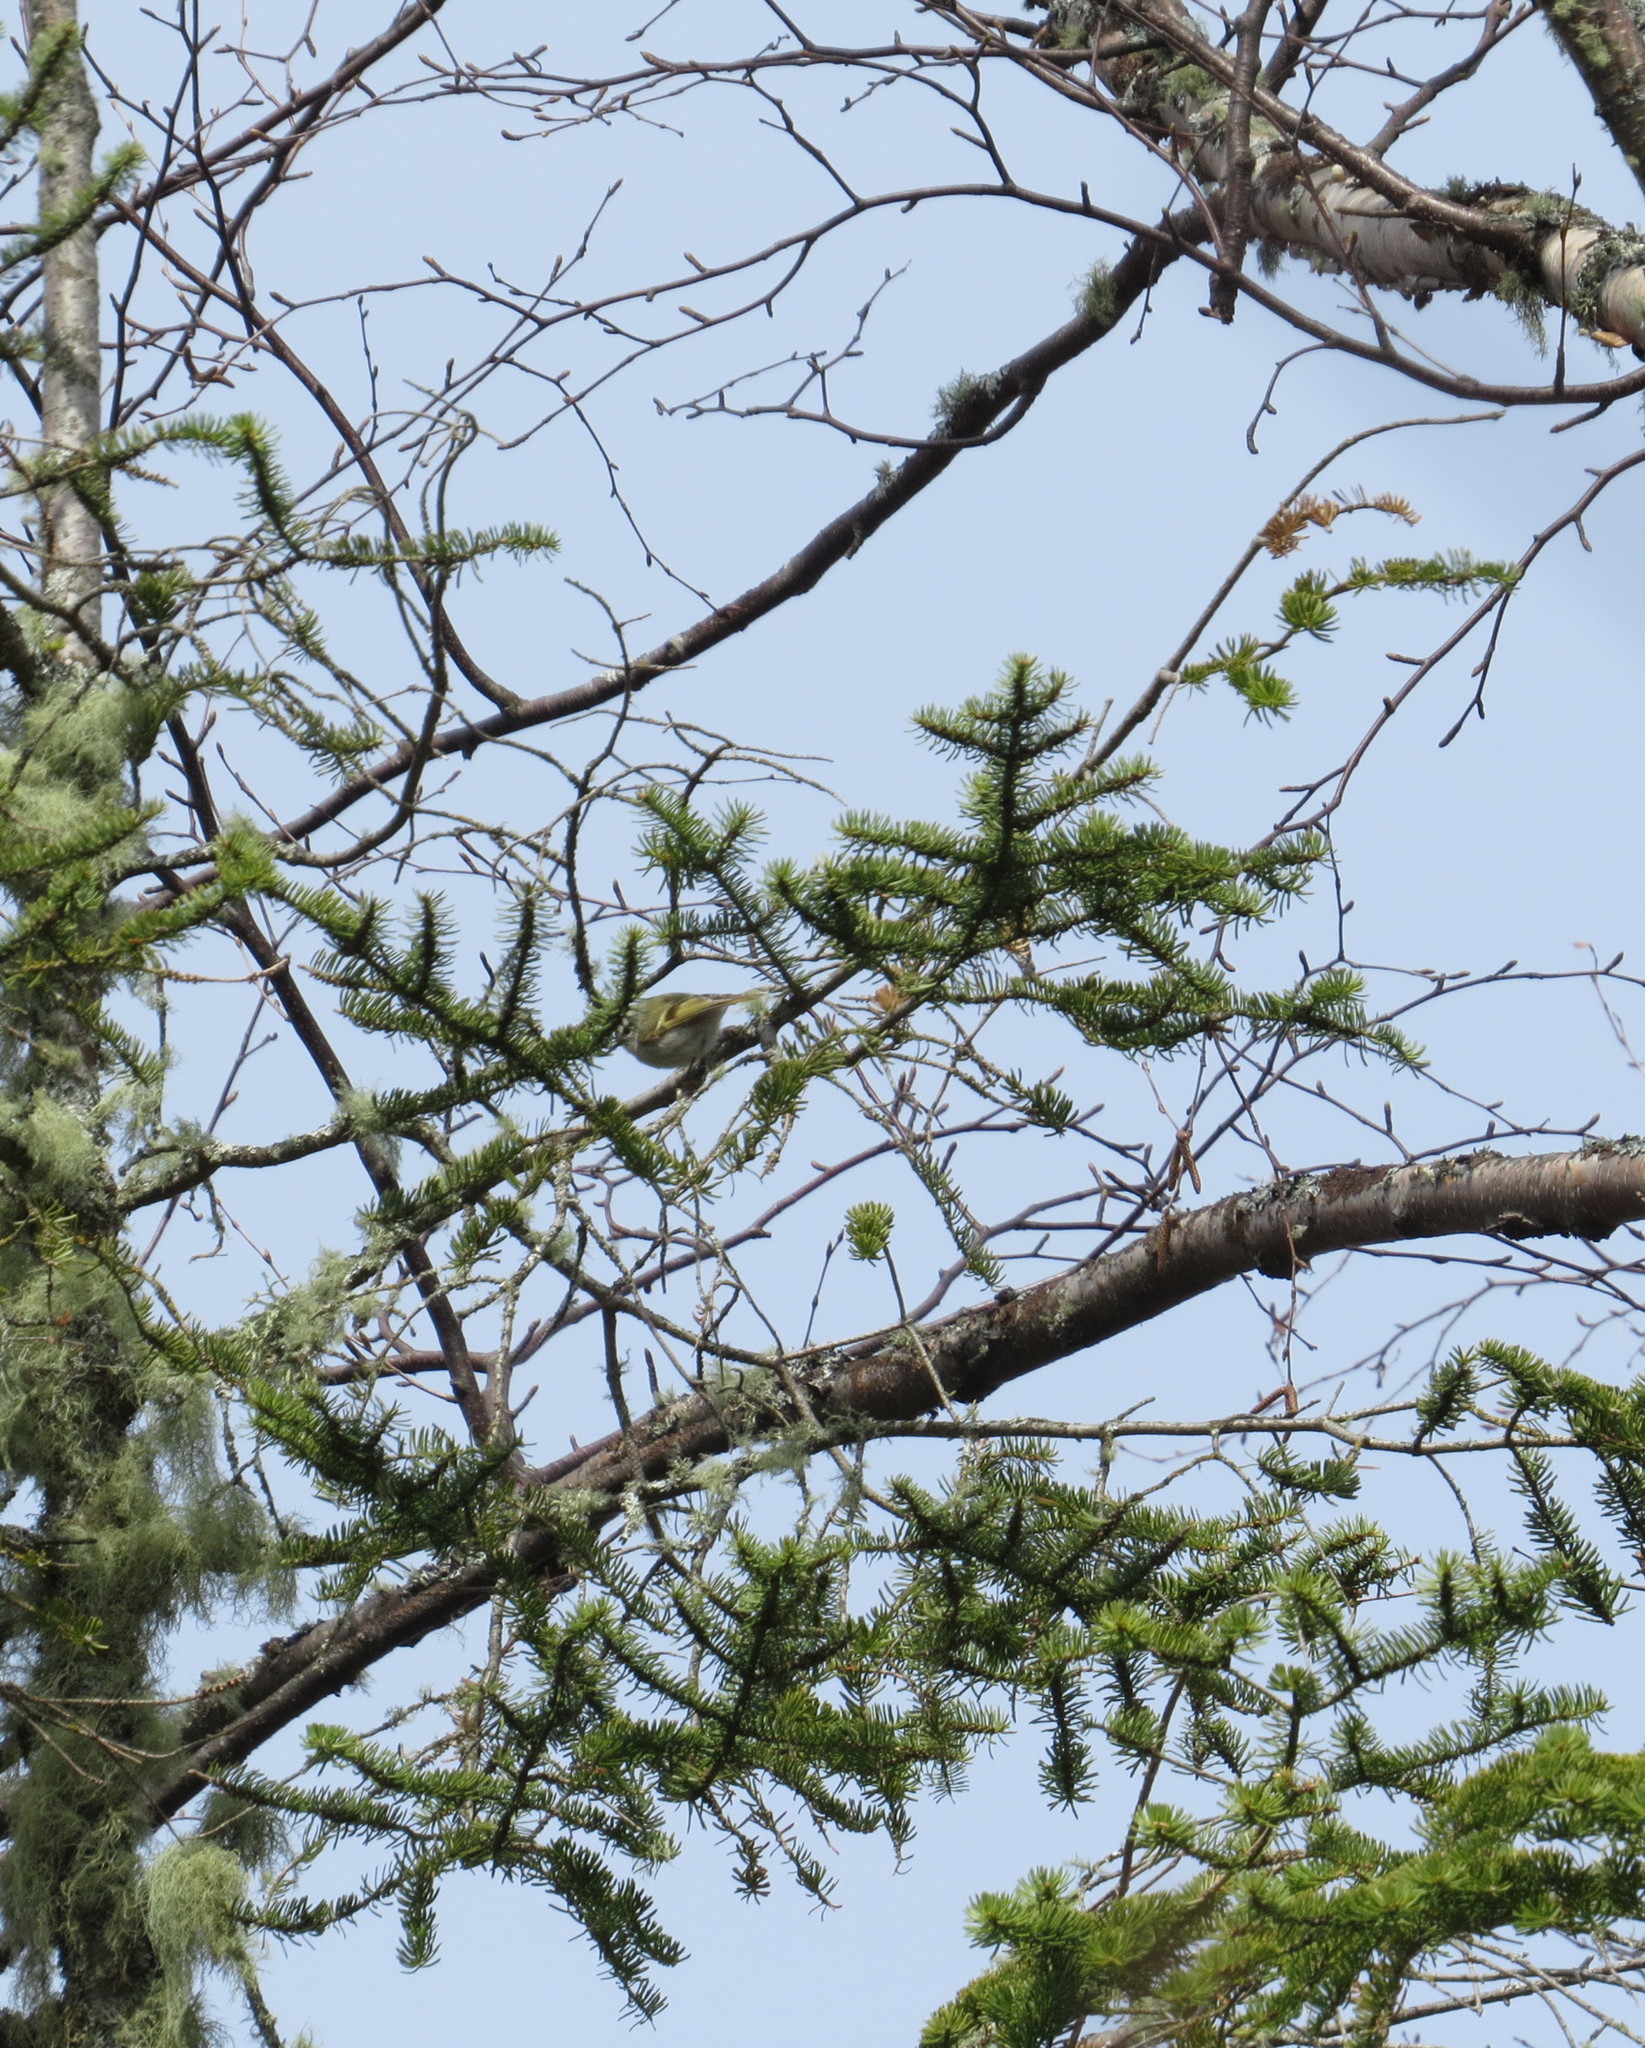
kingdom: Animalia
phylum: Chordata
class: Aves
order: Passeriformes
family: Regulidae
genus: Regulus
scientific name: Regulus satrapa
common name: Golden-crowned kinglet
